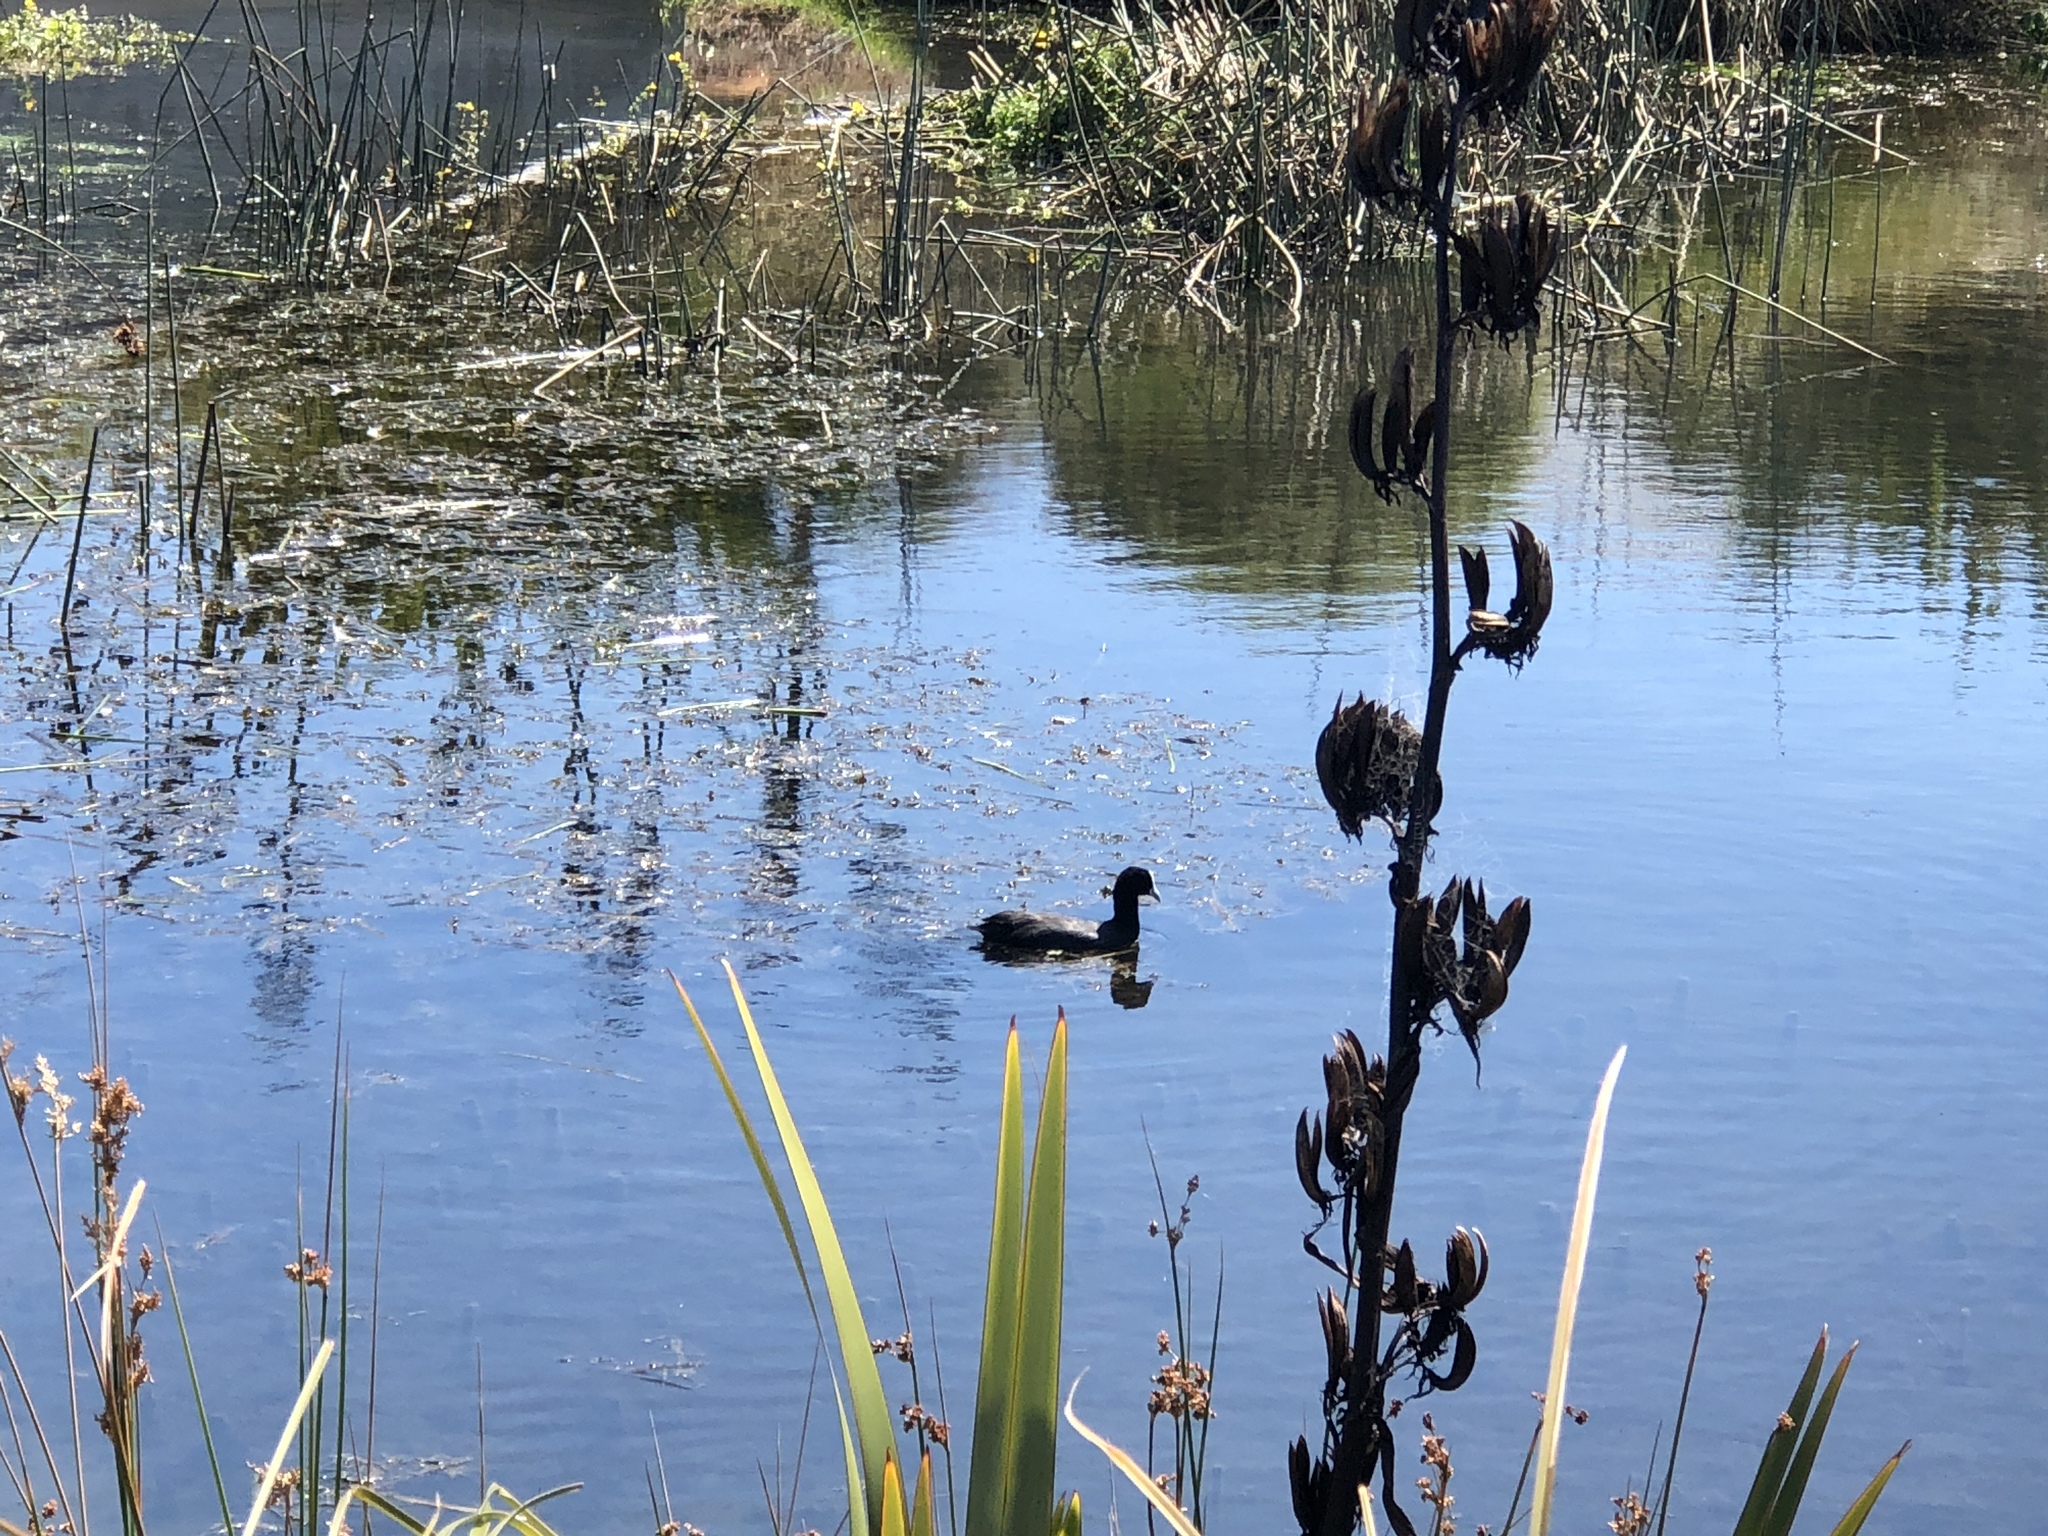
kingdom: Animalia
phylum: Chordata
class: Aves
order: Gruiformes
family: Rallidae
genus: Fulica
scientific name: Fulica atra
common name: Eurasian coot
